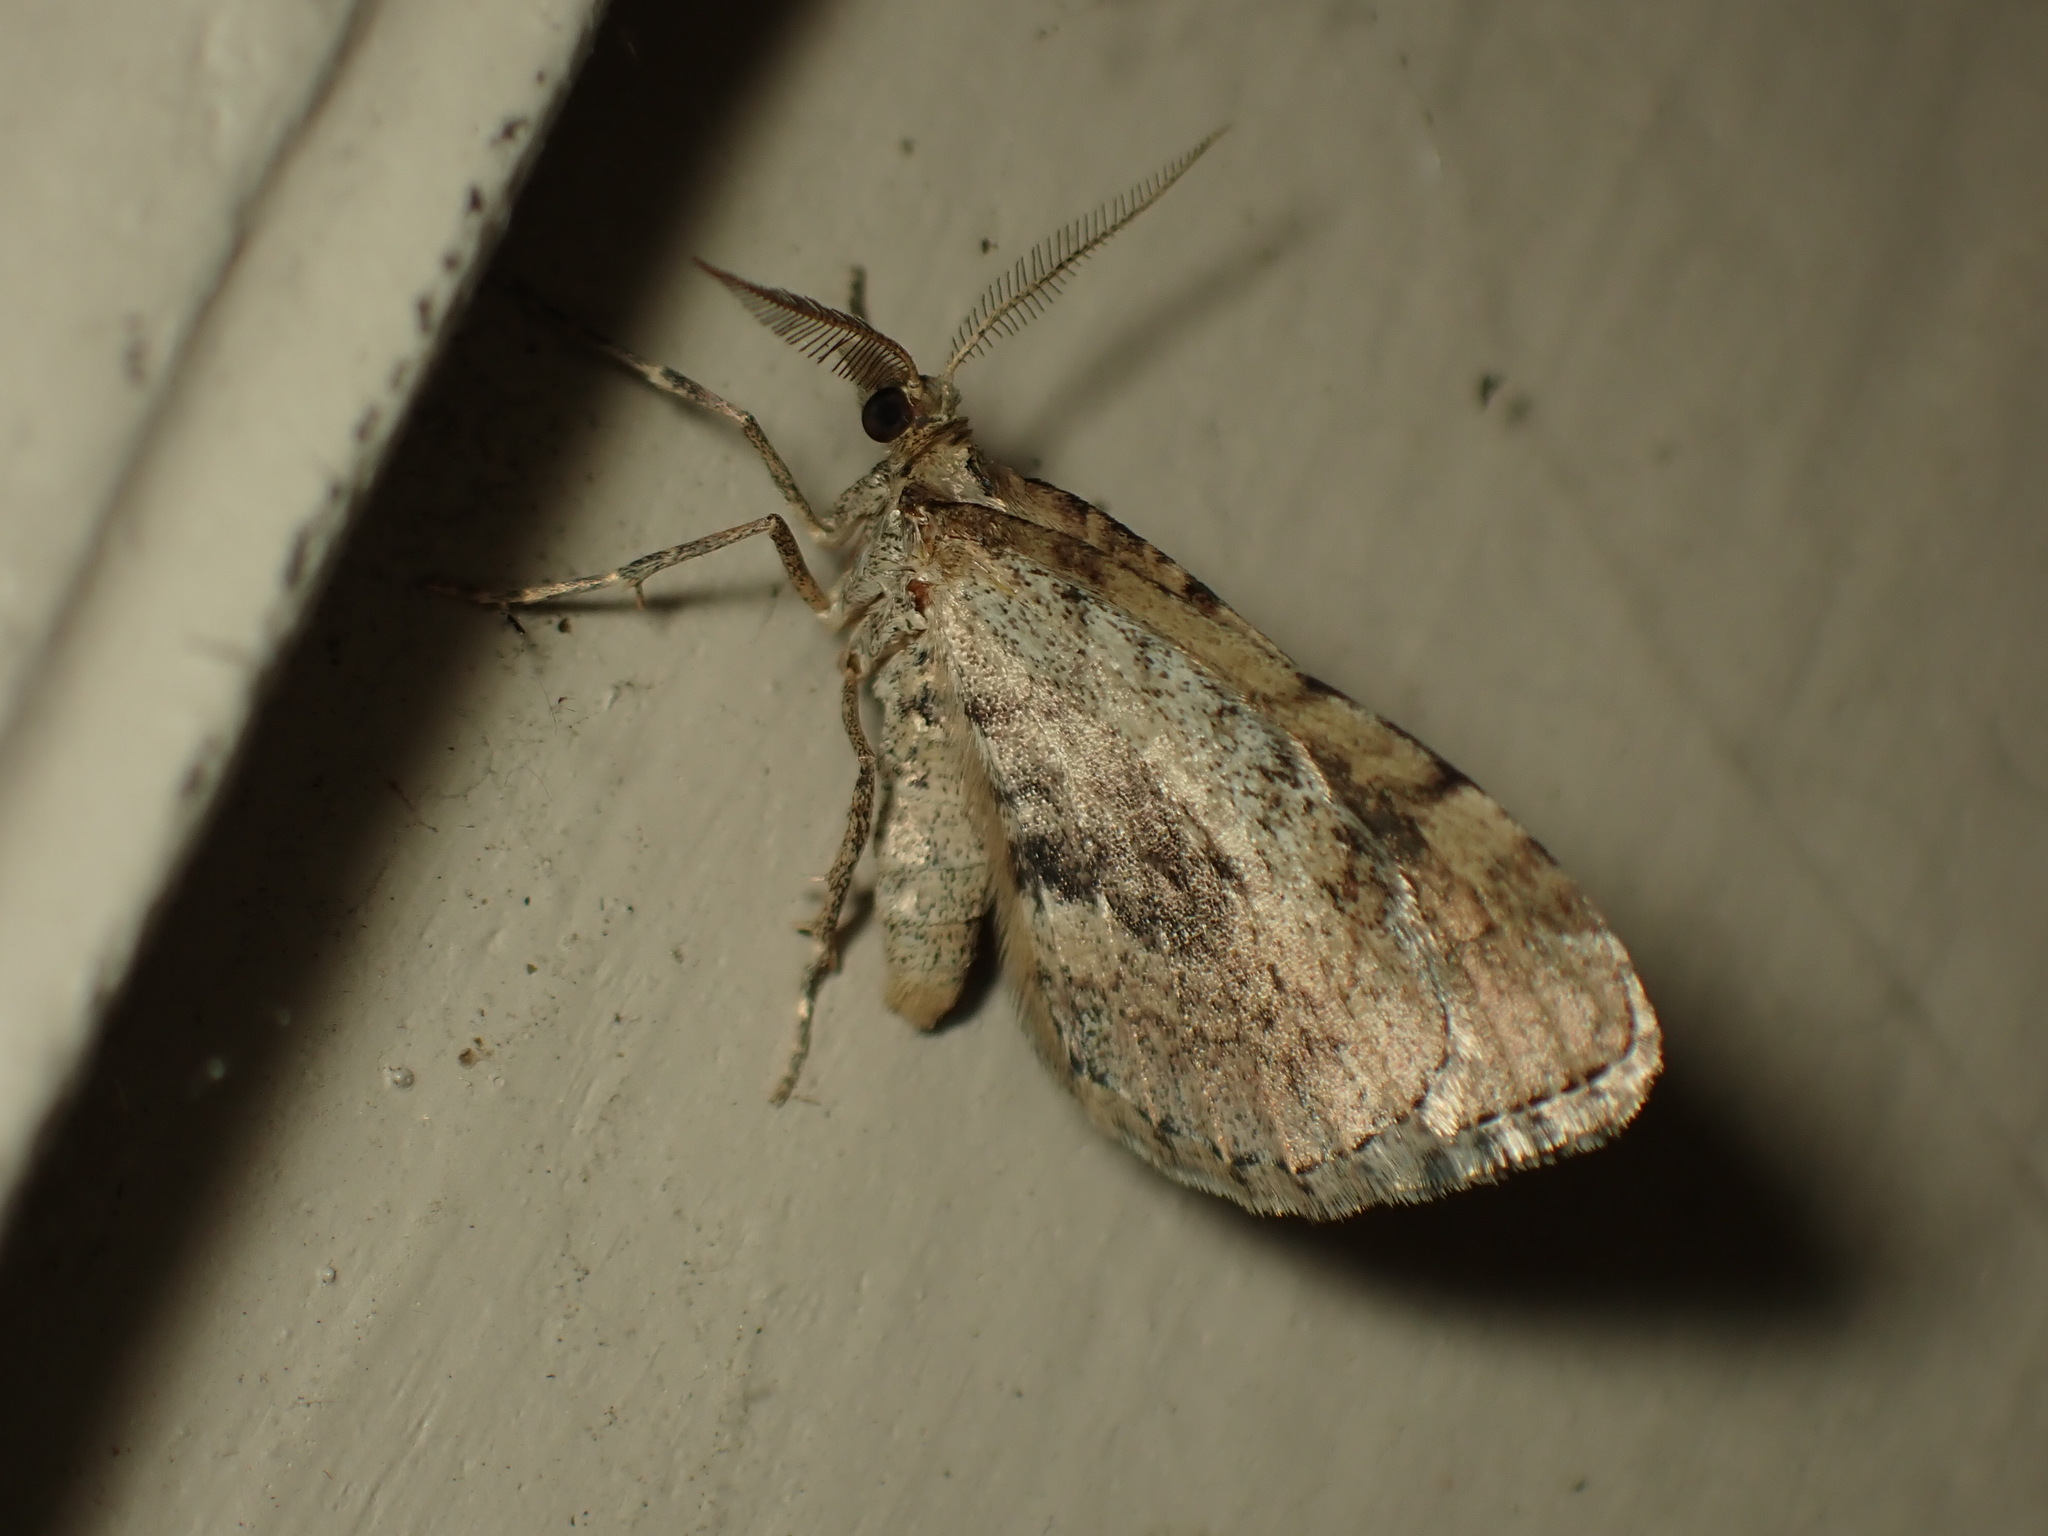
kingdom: Animalia
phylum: Arthropoda
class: Insecta
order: Lepidoptera
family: Geometridae
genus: Asaphodes
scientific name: Asaphodes aegrota
